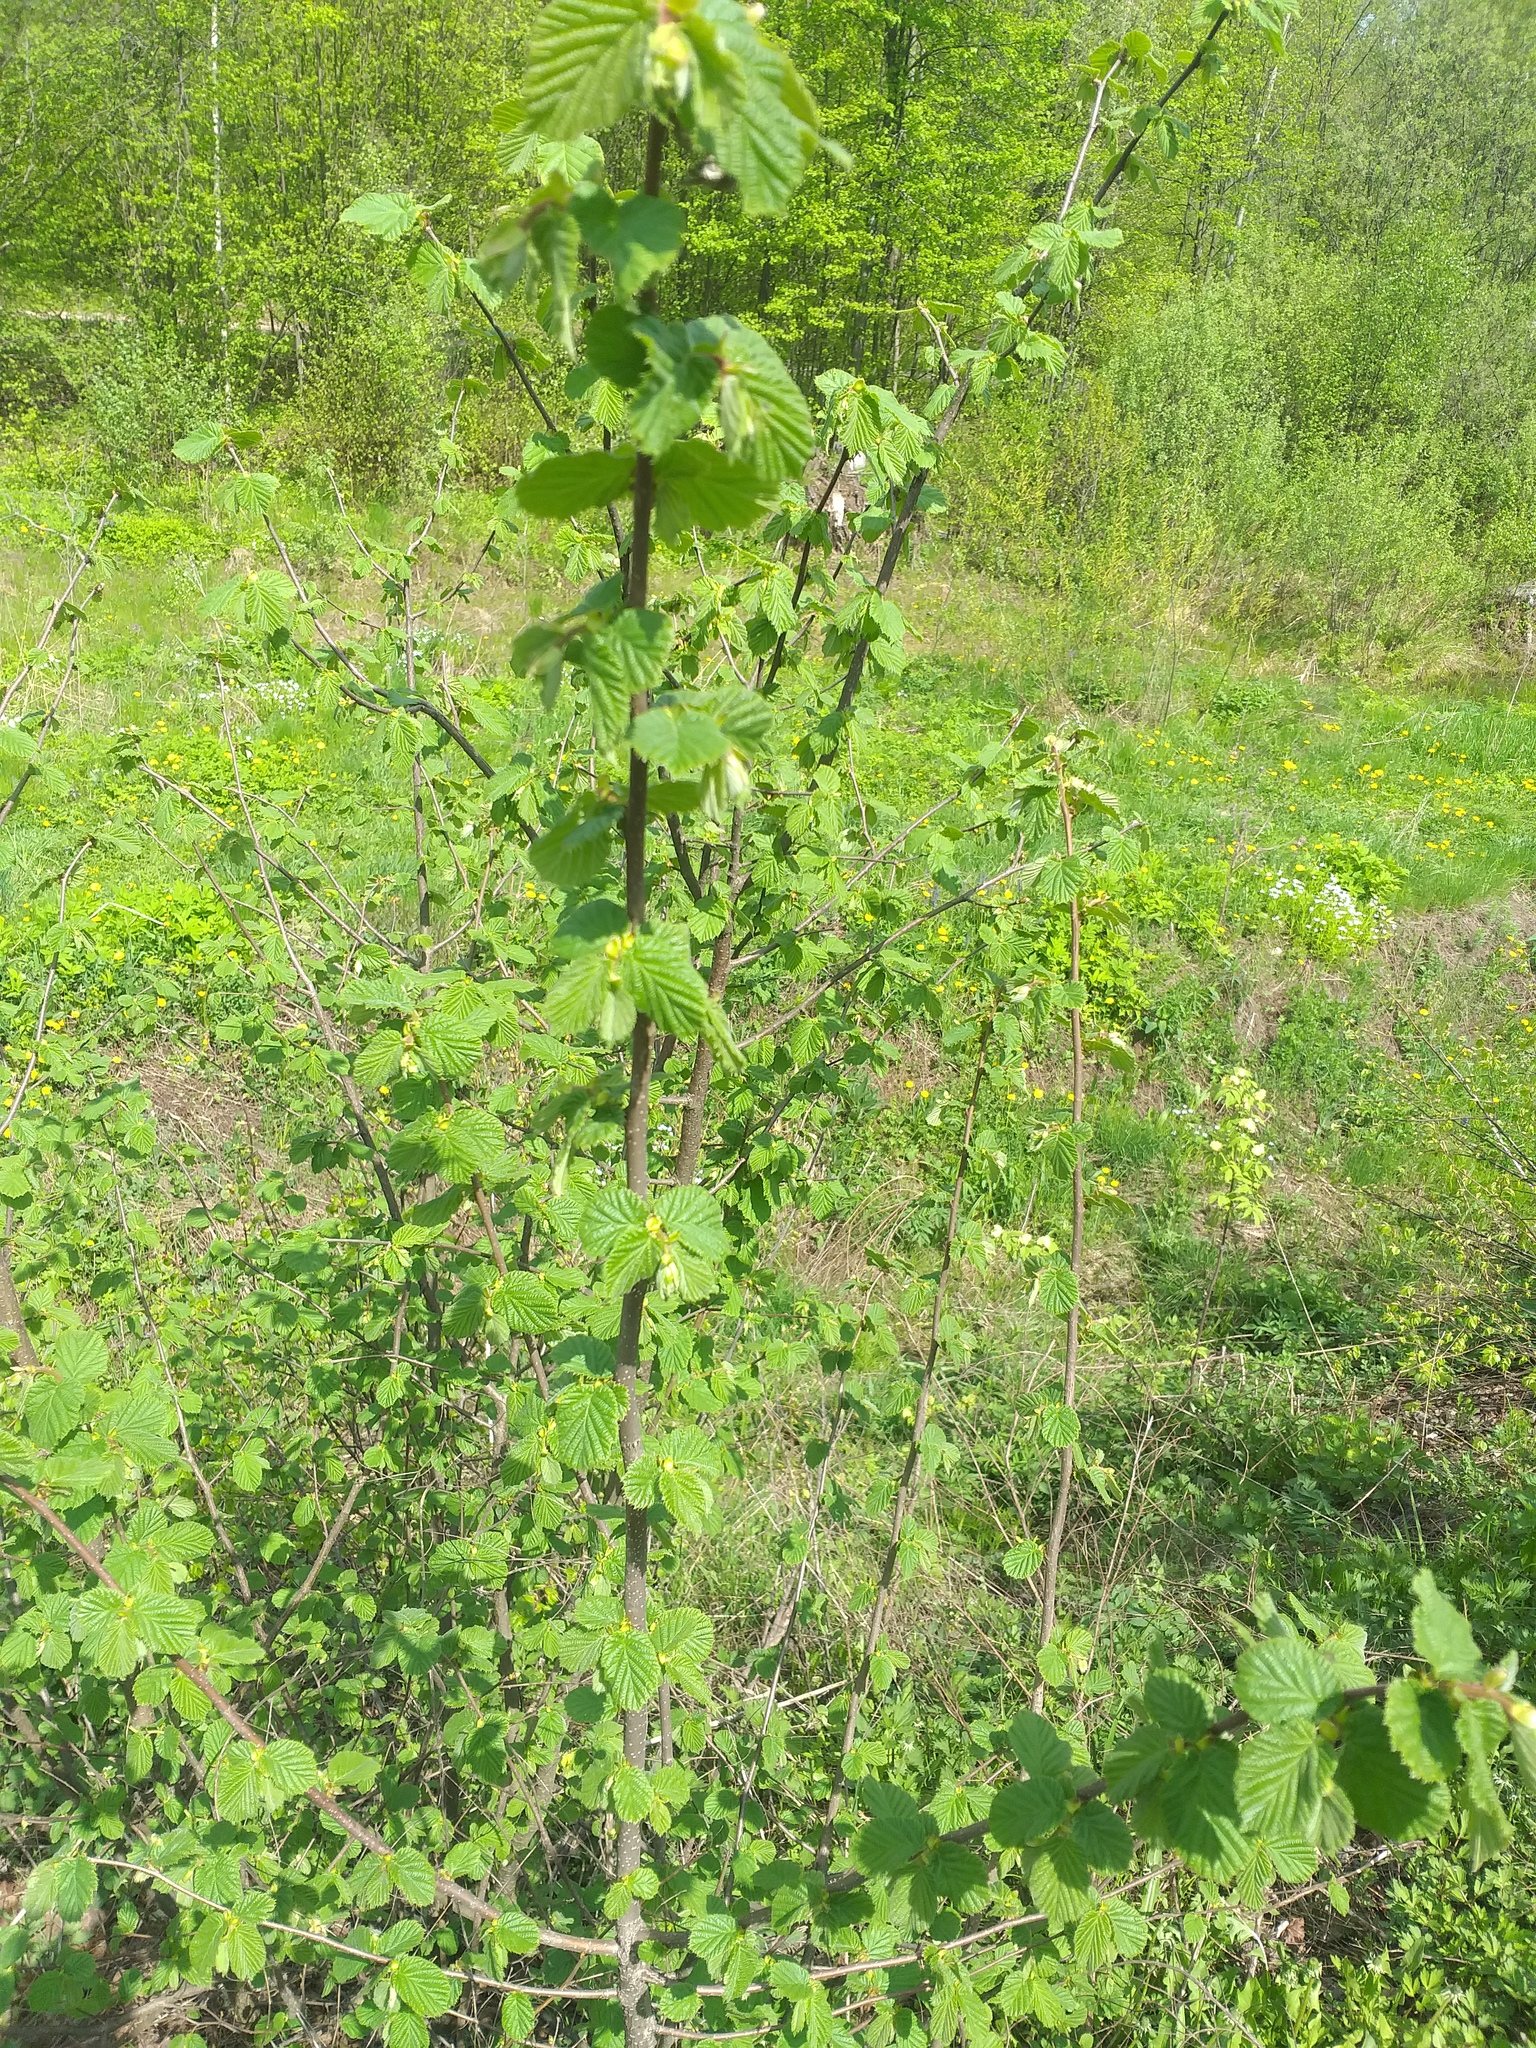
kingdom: Plantae
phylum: Tracheophyta
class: Magnoliopsida
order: Fagales
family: Betulaceae
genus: Corylus
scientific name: Corylus avellana
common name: European hazel
